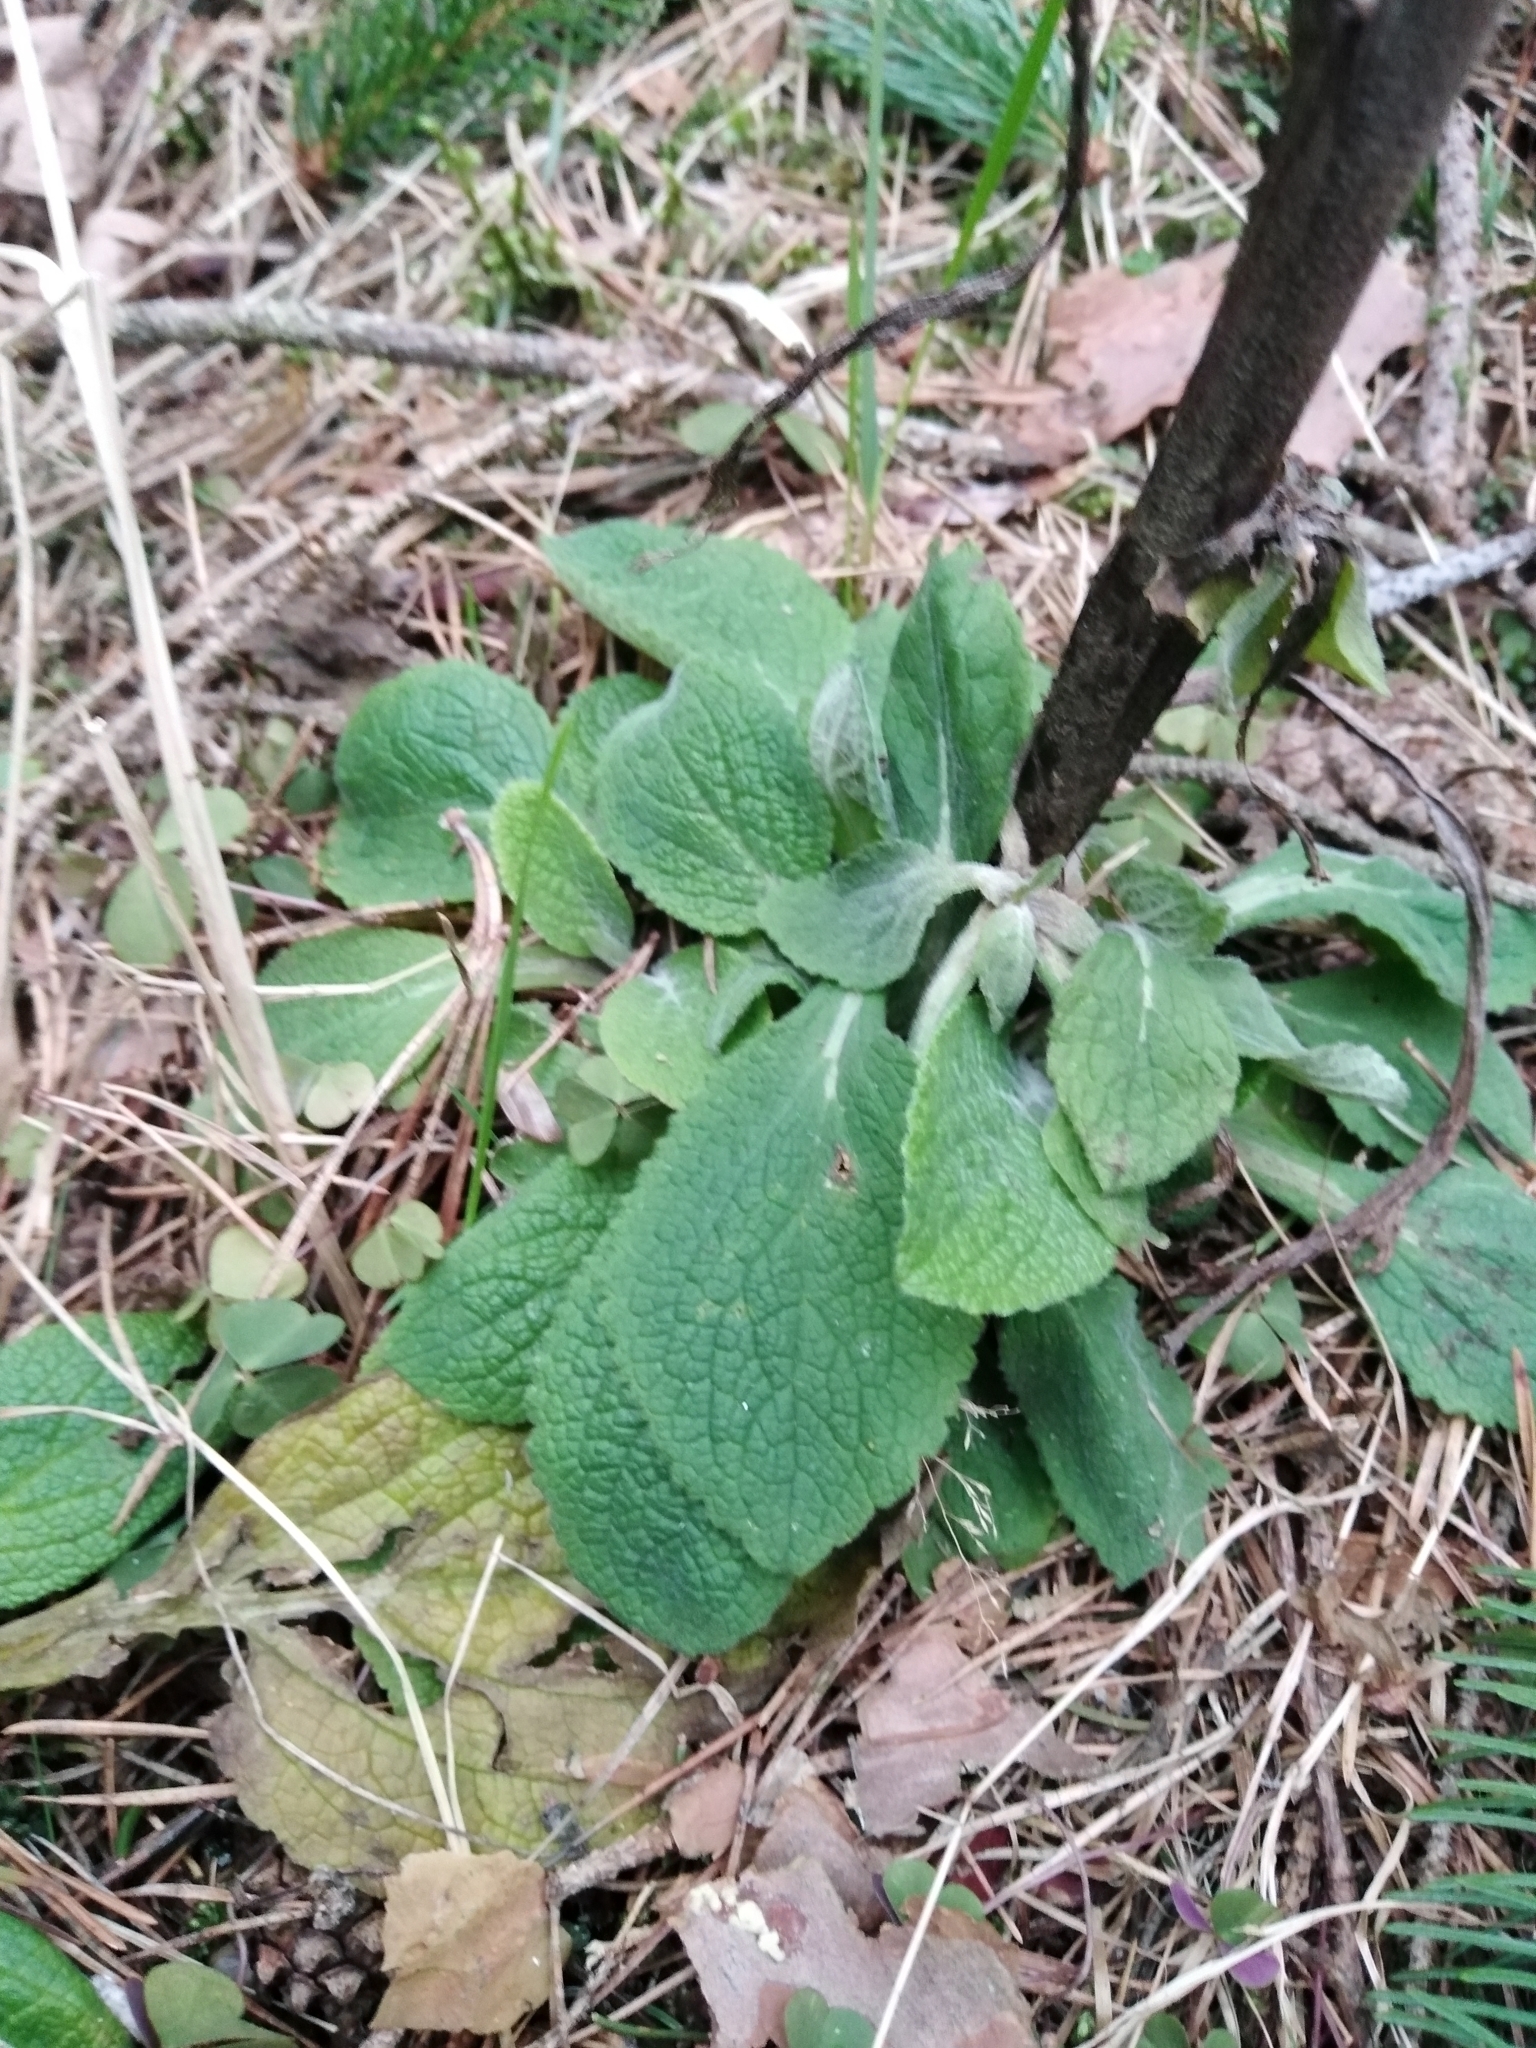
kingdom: Plantae
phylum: Tracheophyta
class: Magnoliopsida
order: Lamiales
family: Plantaginaceae
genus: Digitalis
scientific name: Digitalis purpurea
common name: Foxglove
